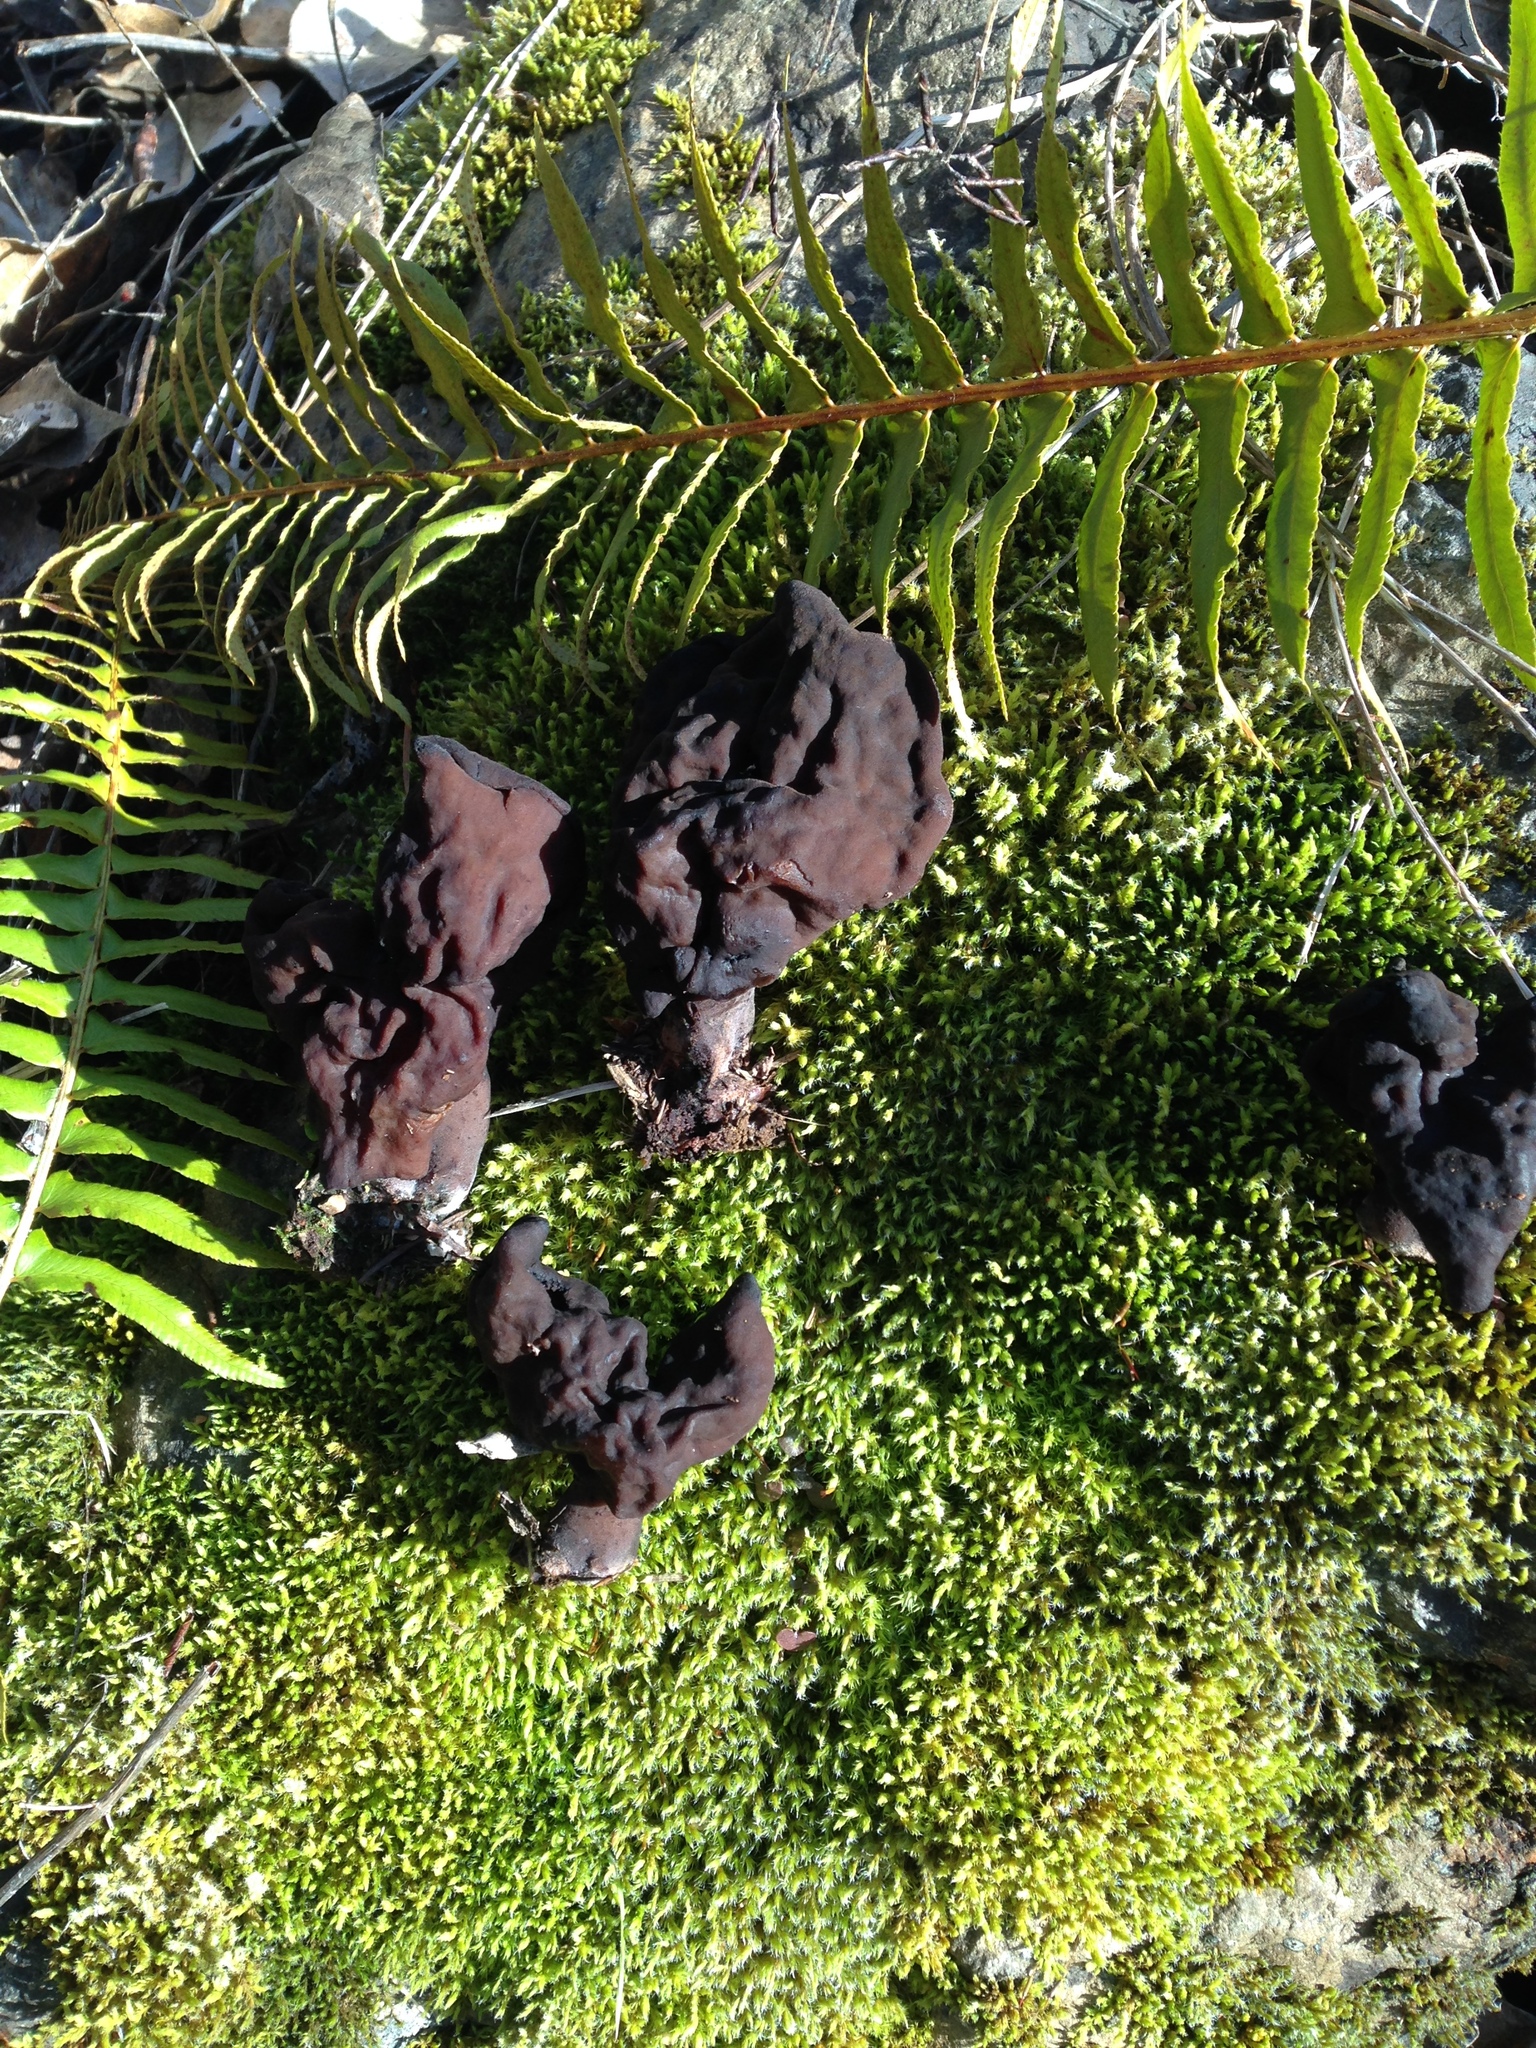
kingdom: Fungi
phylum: Ascomycota
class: Pezizomycetes
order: Pezizales
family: Discinaceae
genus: Gyromitra
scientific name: Gyromitra esculenta
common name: False morel
